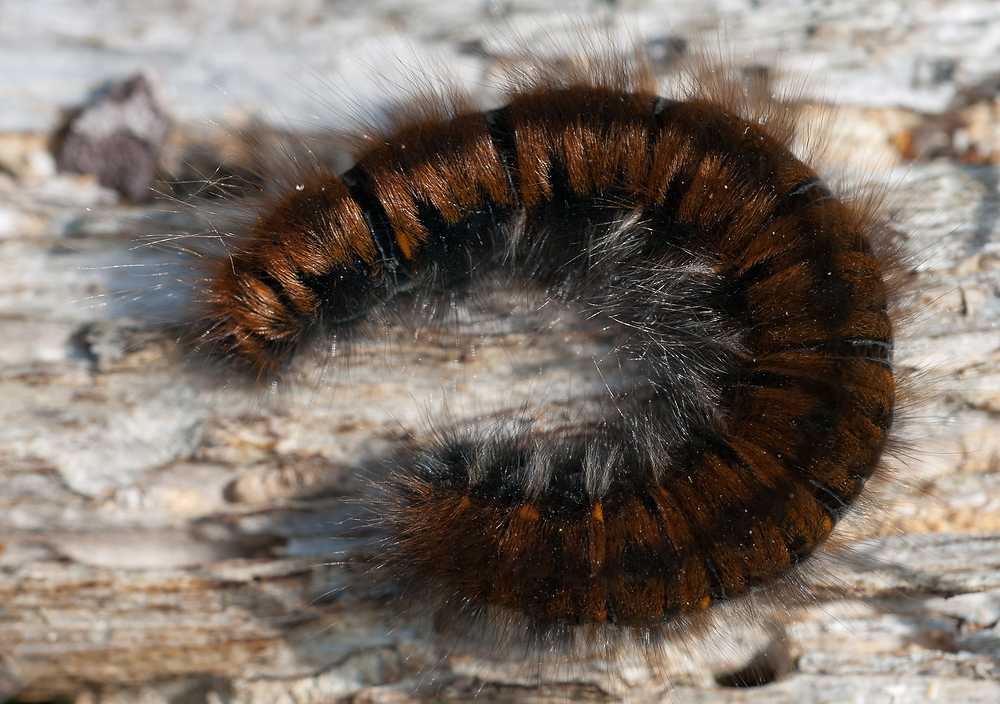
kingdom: Animalia
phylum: Arthropoda
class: Insecta
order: Lepidoptera
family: Lasiocampidae
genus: Macrothylacia
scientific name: Macrothylacia rubi
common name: Fox moth
